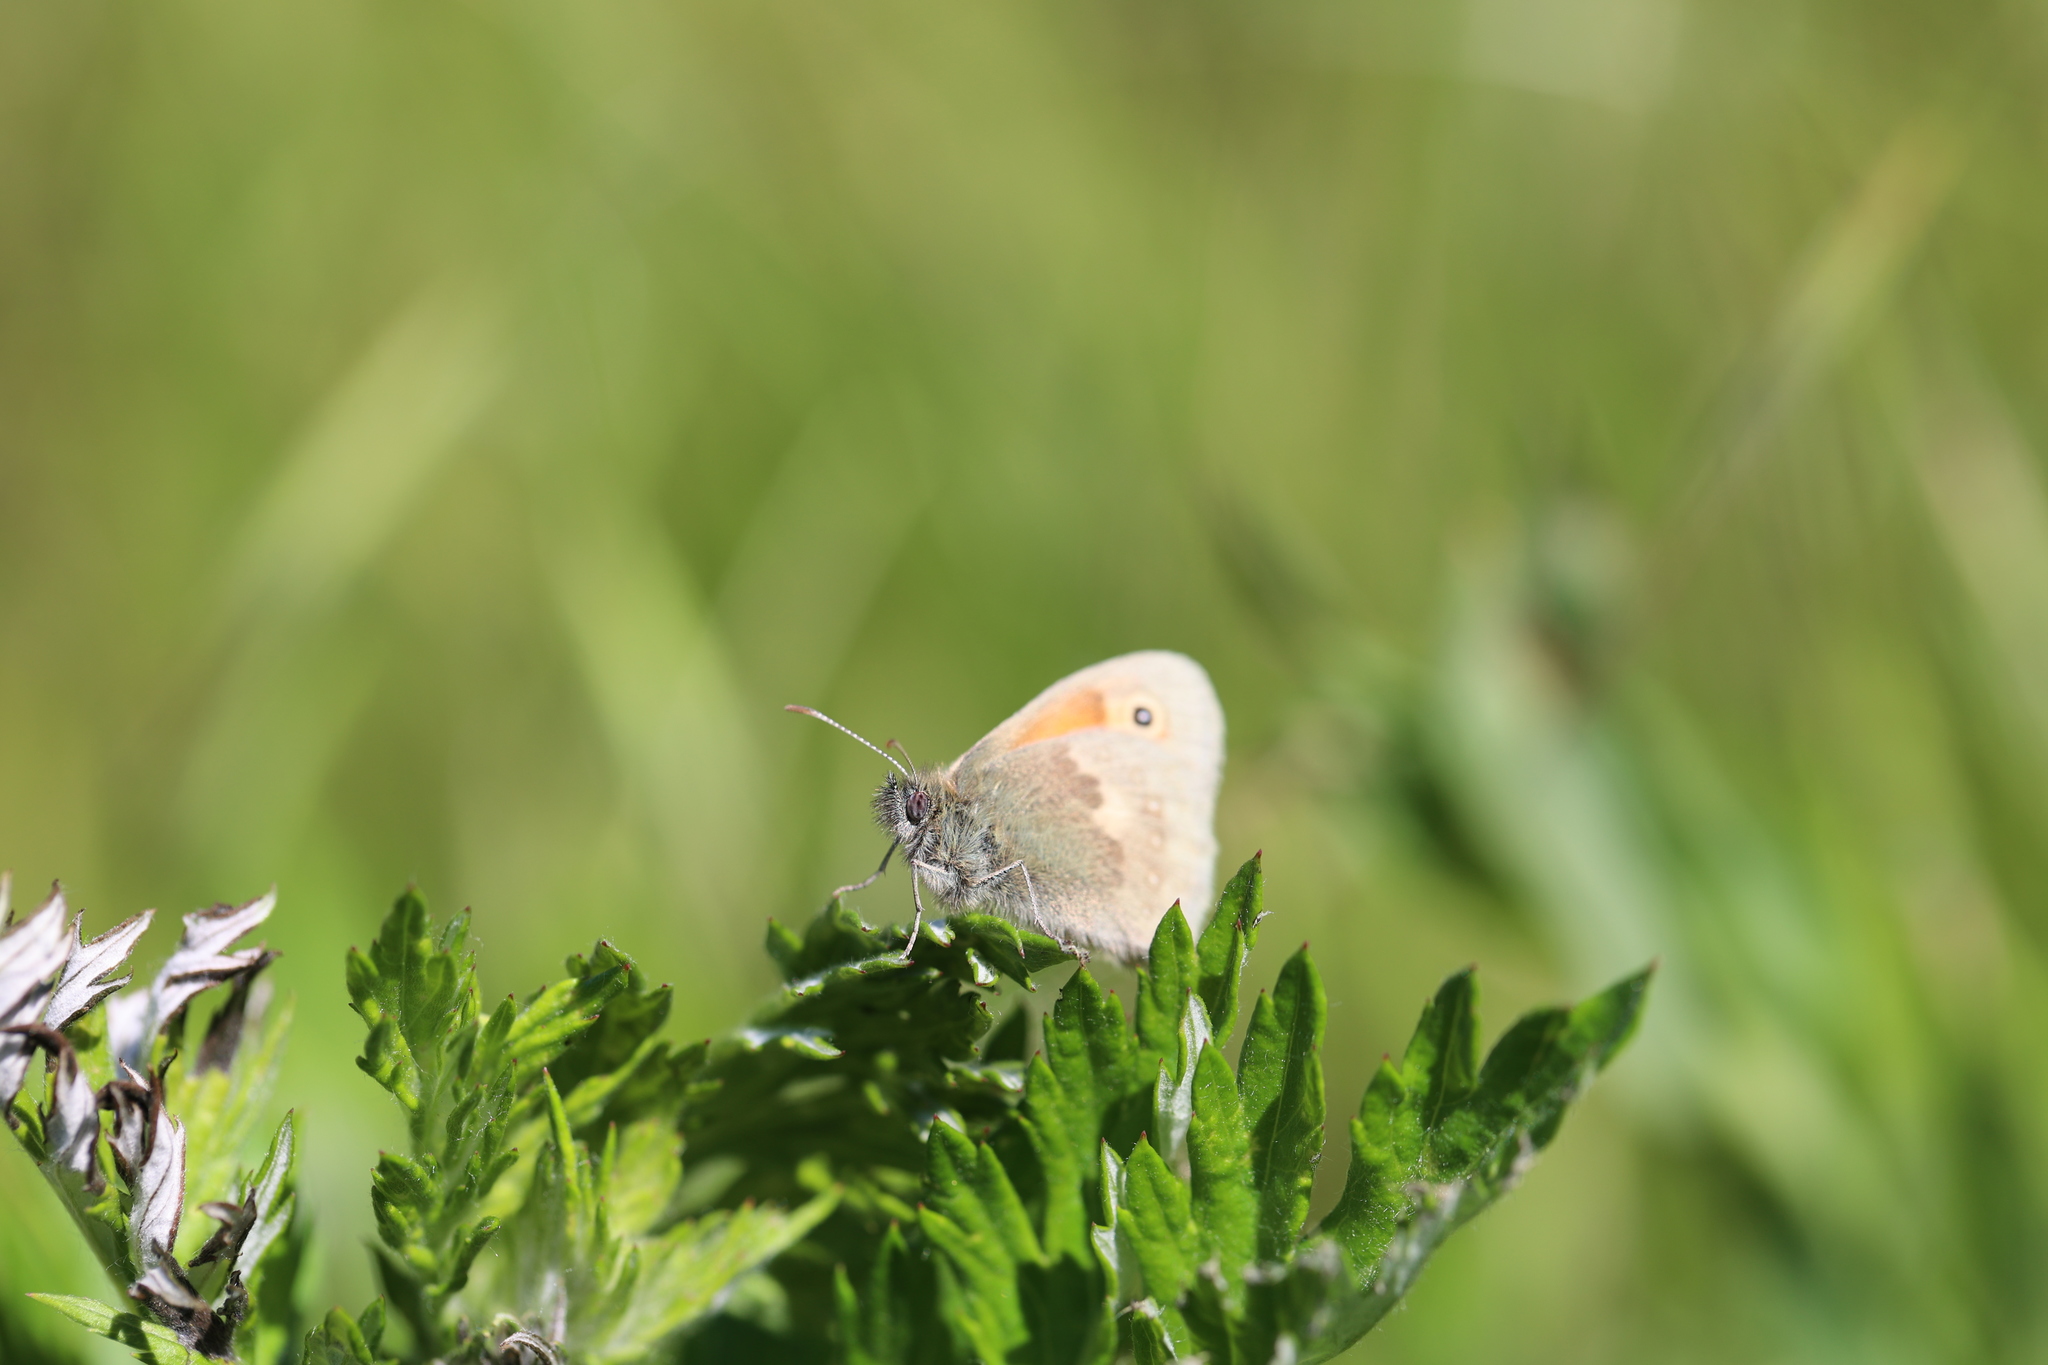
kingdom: Animalia
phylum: Arthropoda
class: Insecta
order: Lepidoptera
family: Nymphalidae
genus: Coenonympha
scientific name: Coenonympha pamphilus
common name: Small heath
